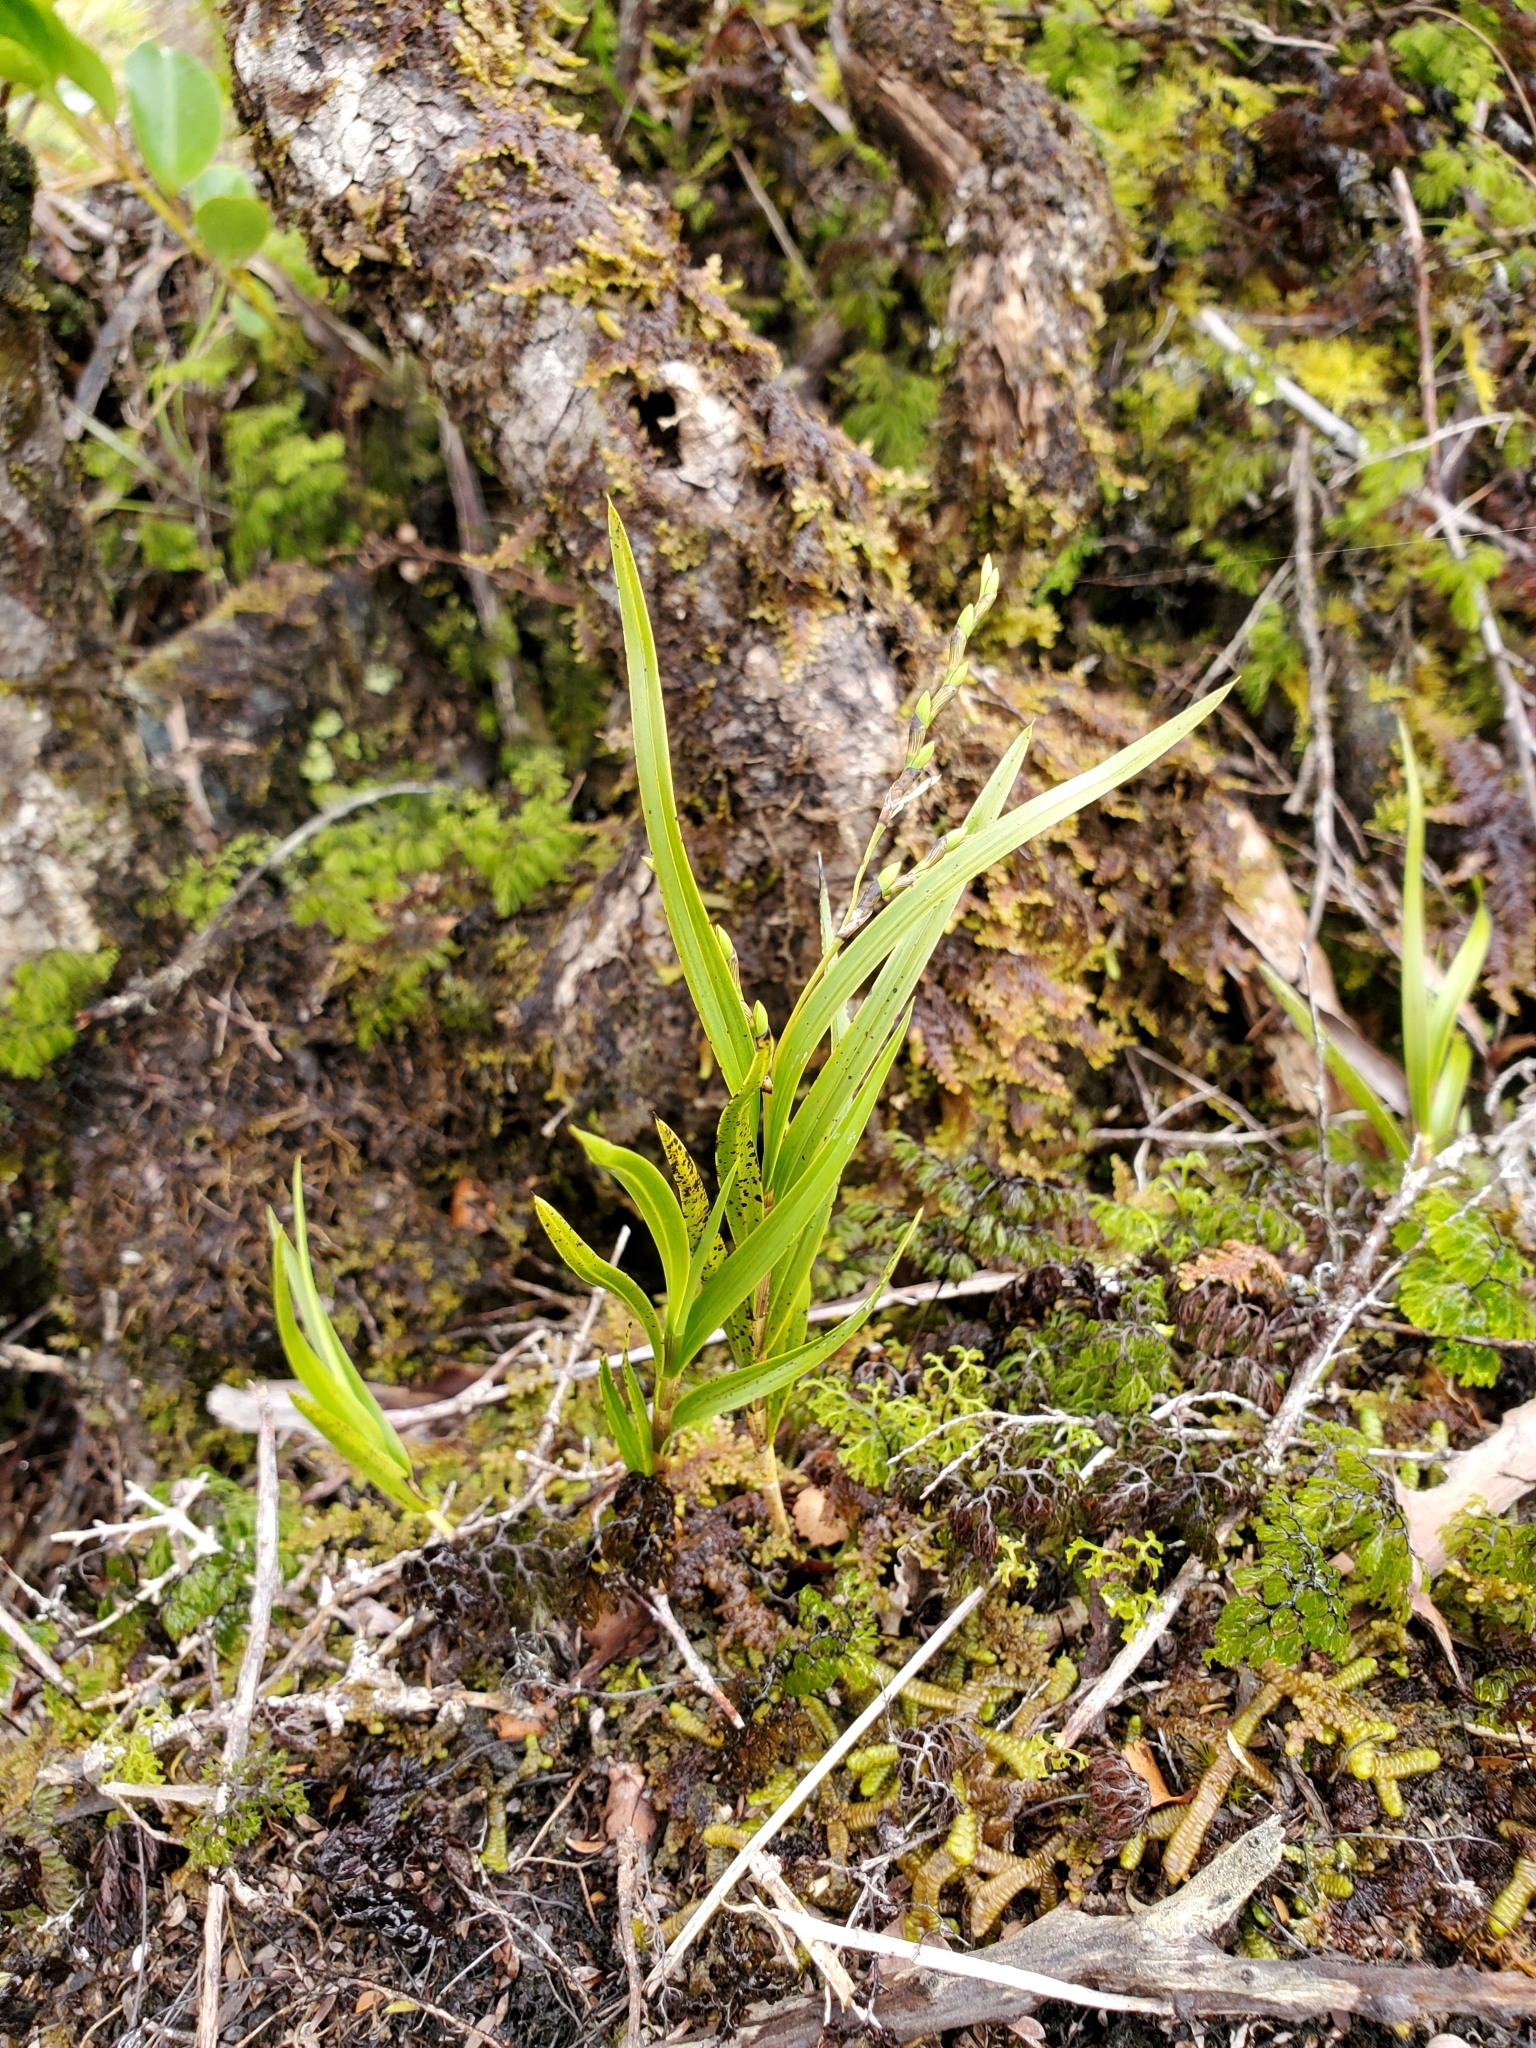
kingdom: Plantae
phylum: Tracheophyta
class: Liliopsida
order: Asparagales
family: Orchidaceae
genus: Earina
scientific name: Earina mucronata
